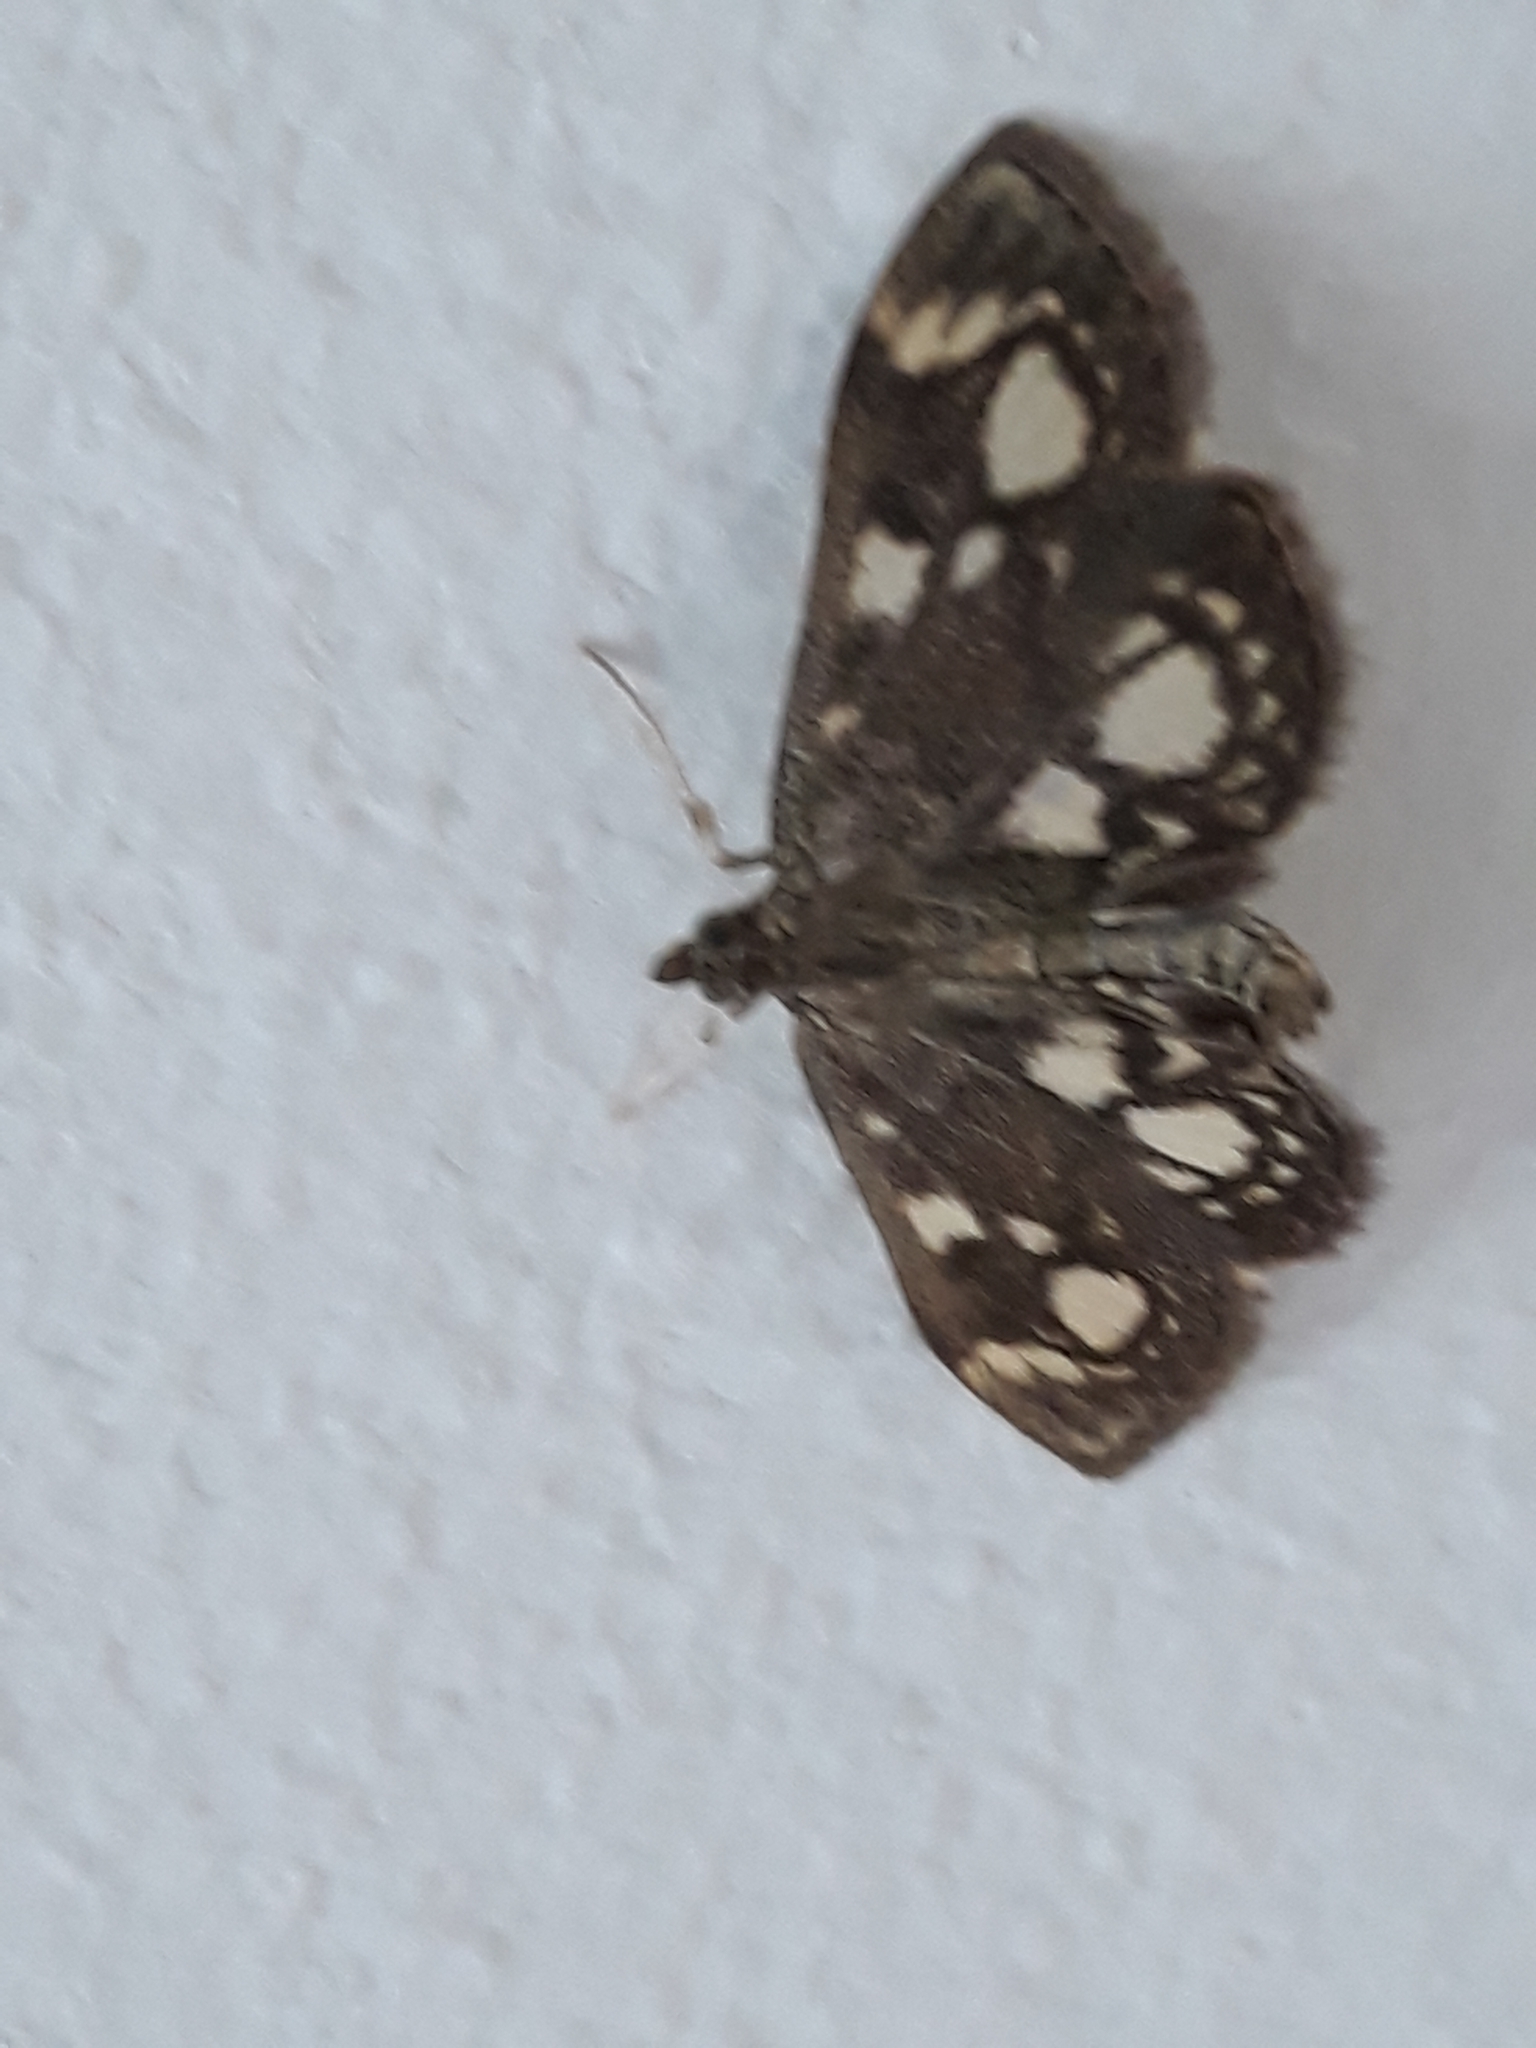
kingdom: Animalia
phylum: Arthropoda
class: Insecta
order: Lepidoptera
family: Crambidae
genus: Anania
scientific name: Anania coronata
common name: Elder pearl
